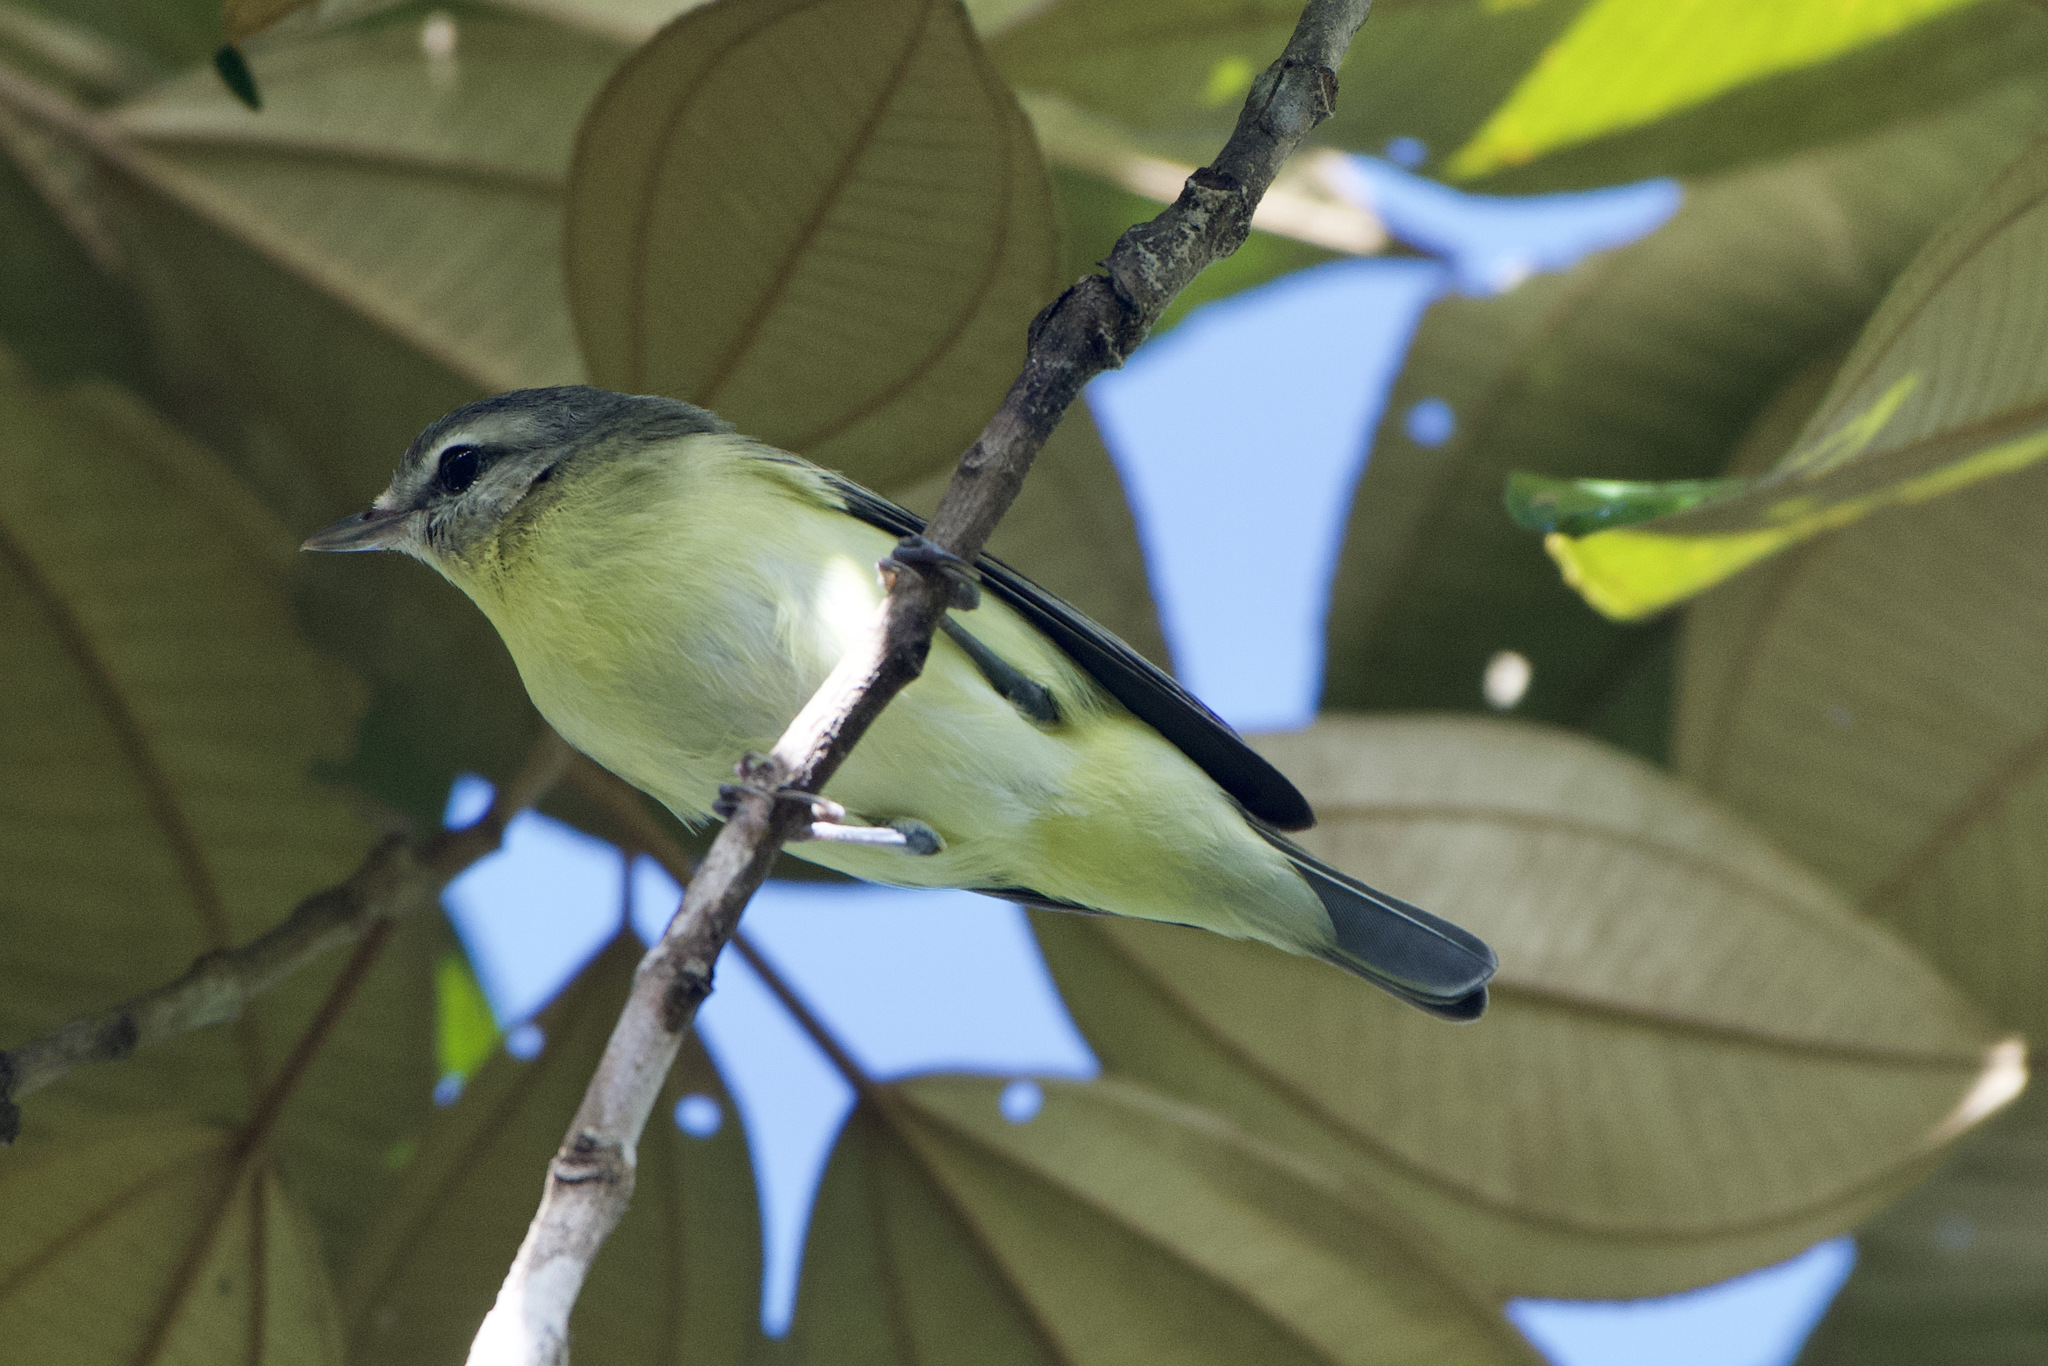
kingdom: Animalia
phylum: Chordata
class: Aves
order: Passeriformes
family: Vireonidae
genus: Vireo
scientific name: Vireo philadelphicus
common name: Philadelphia vireo
